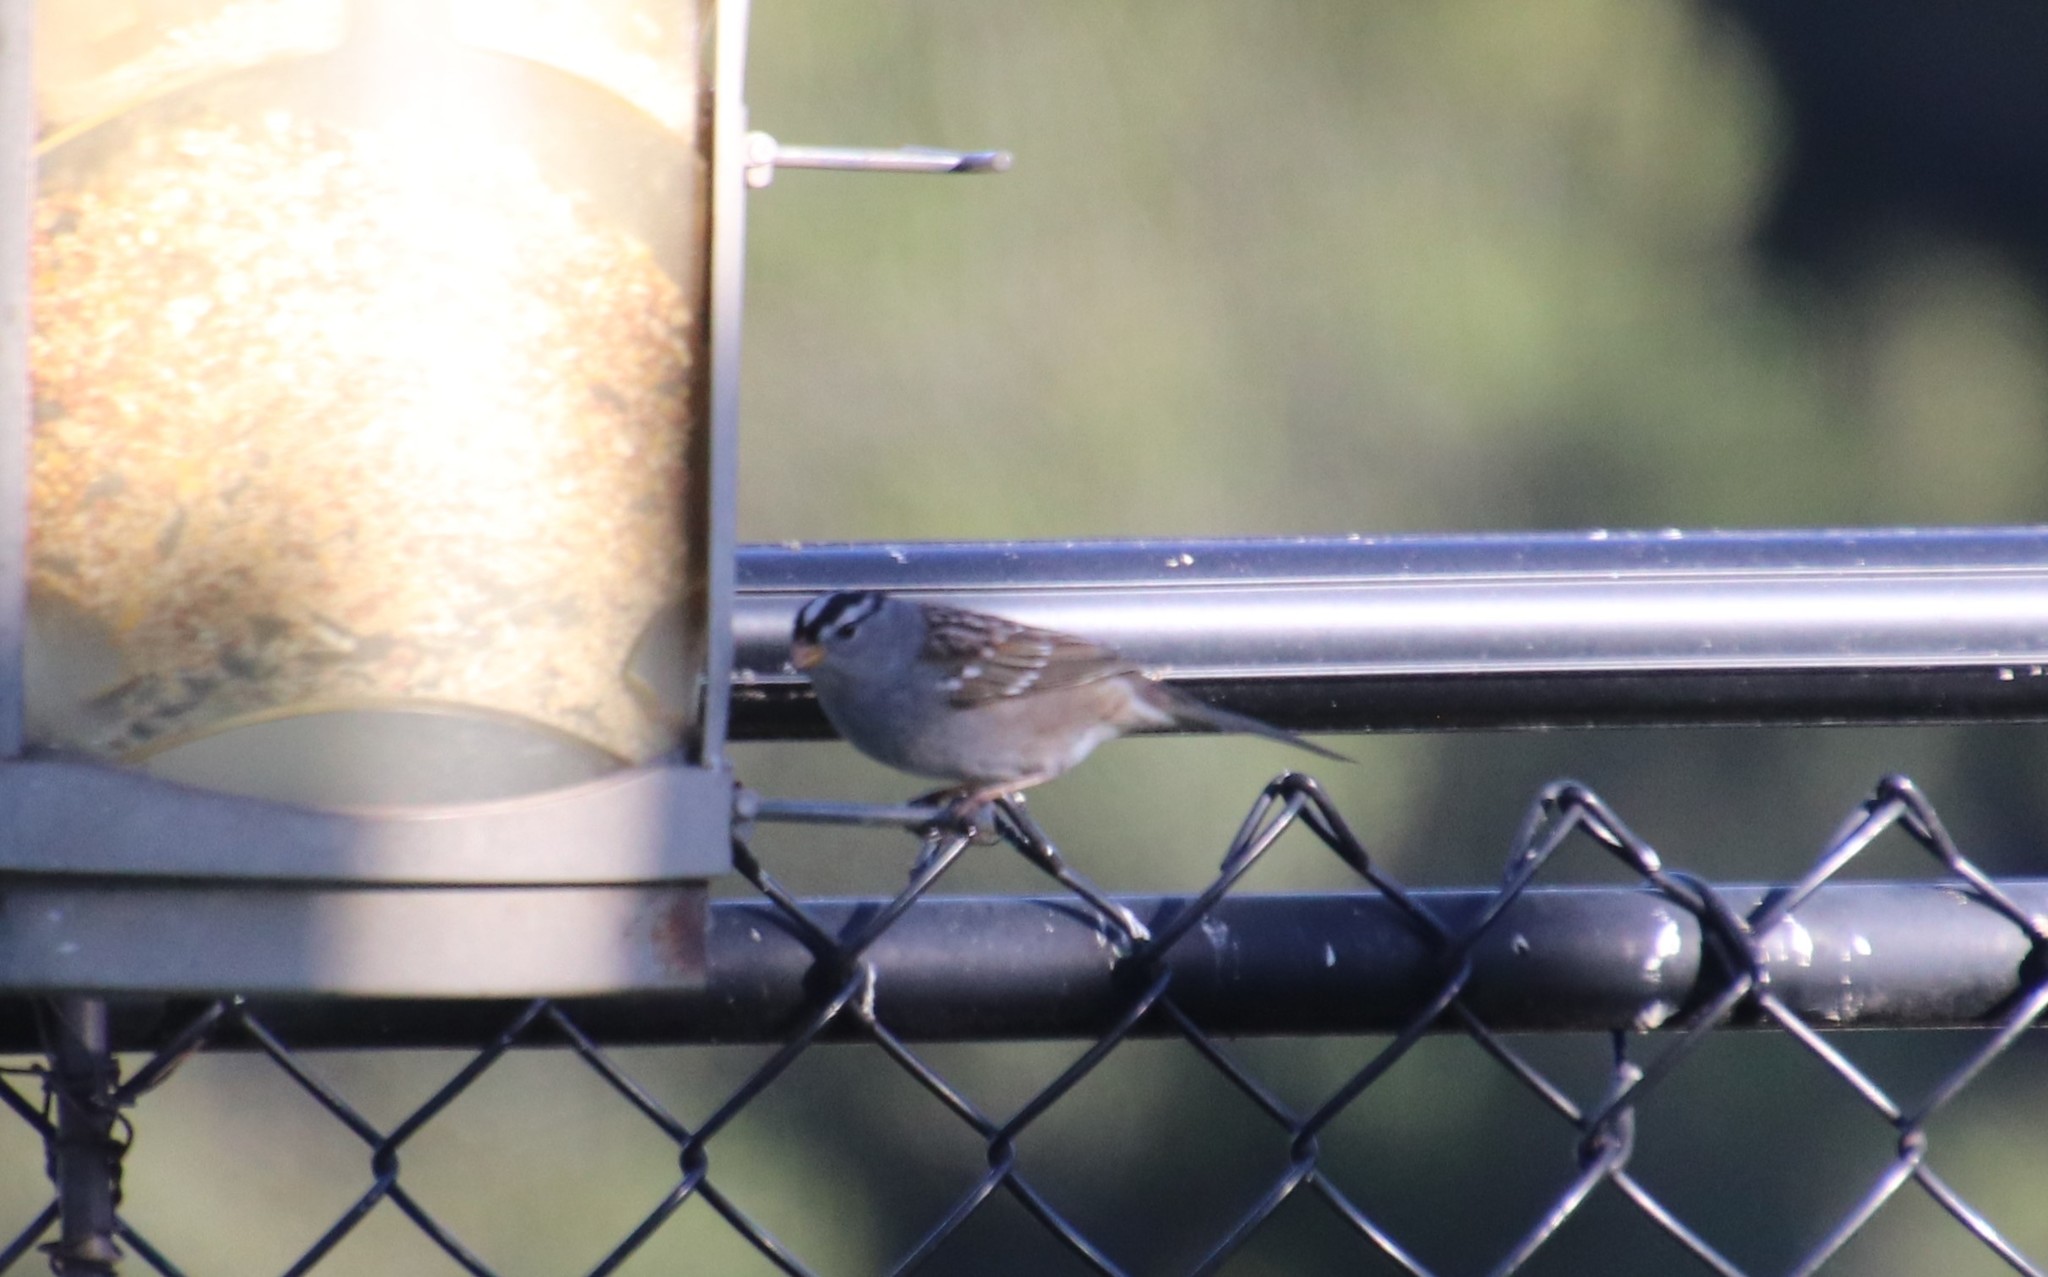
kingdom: Animalia
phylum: Chordata
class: Aves
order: Passeriformes
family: Passerellidae
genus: Zonotrichia
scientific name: Zonotrichia leucophrys
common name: White-crowned sparrow
